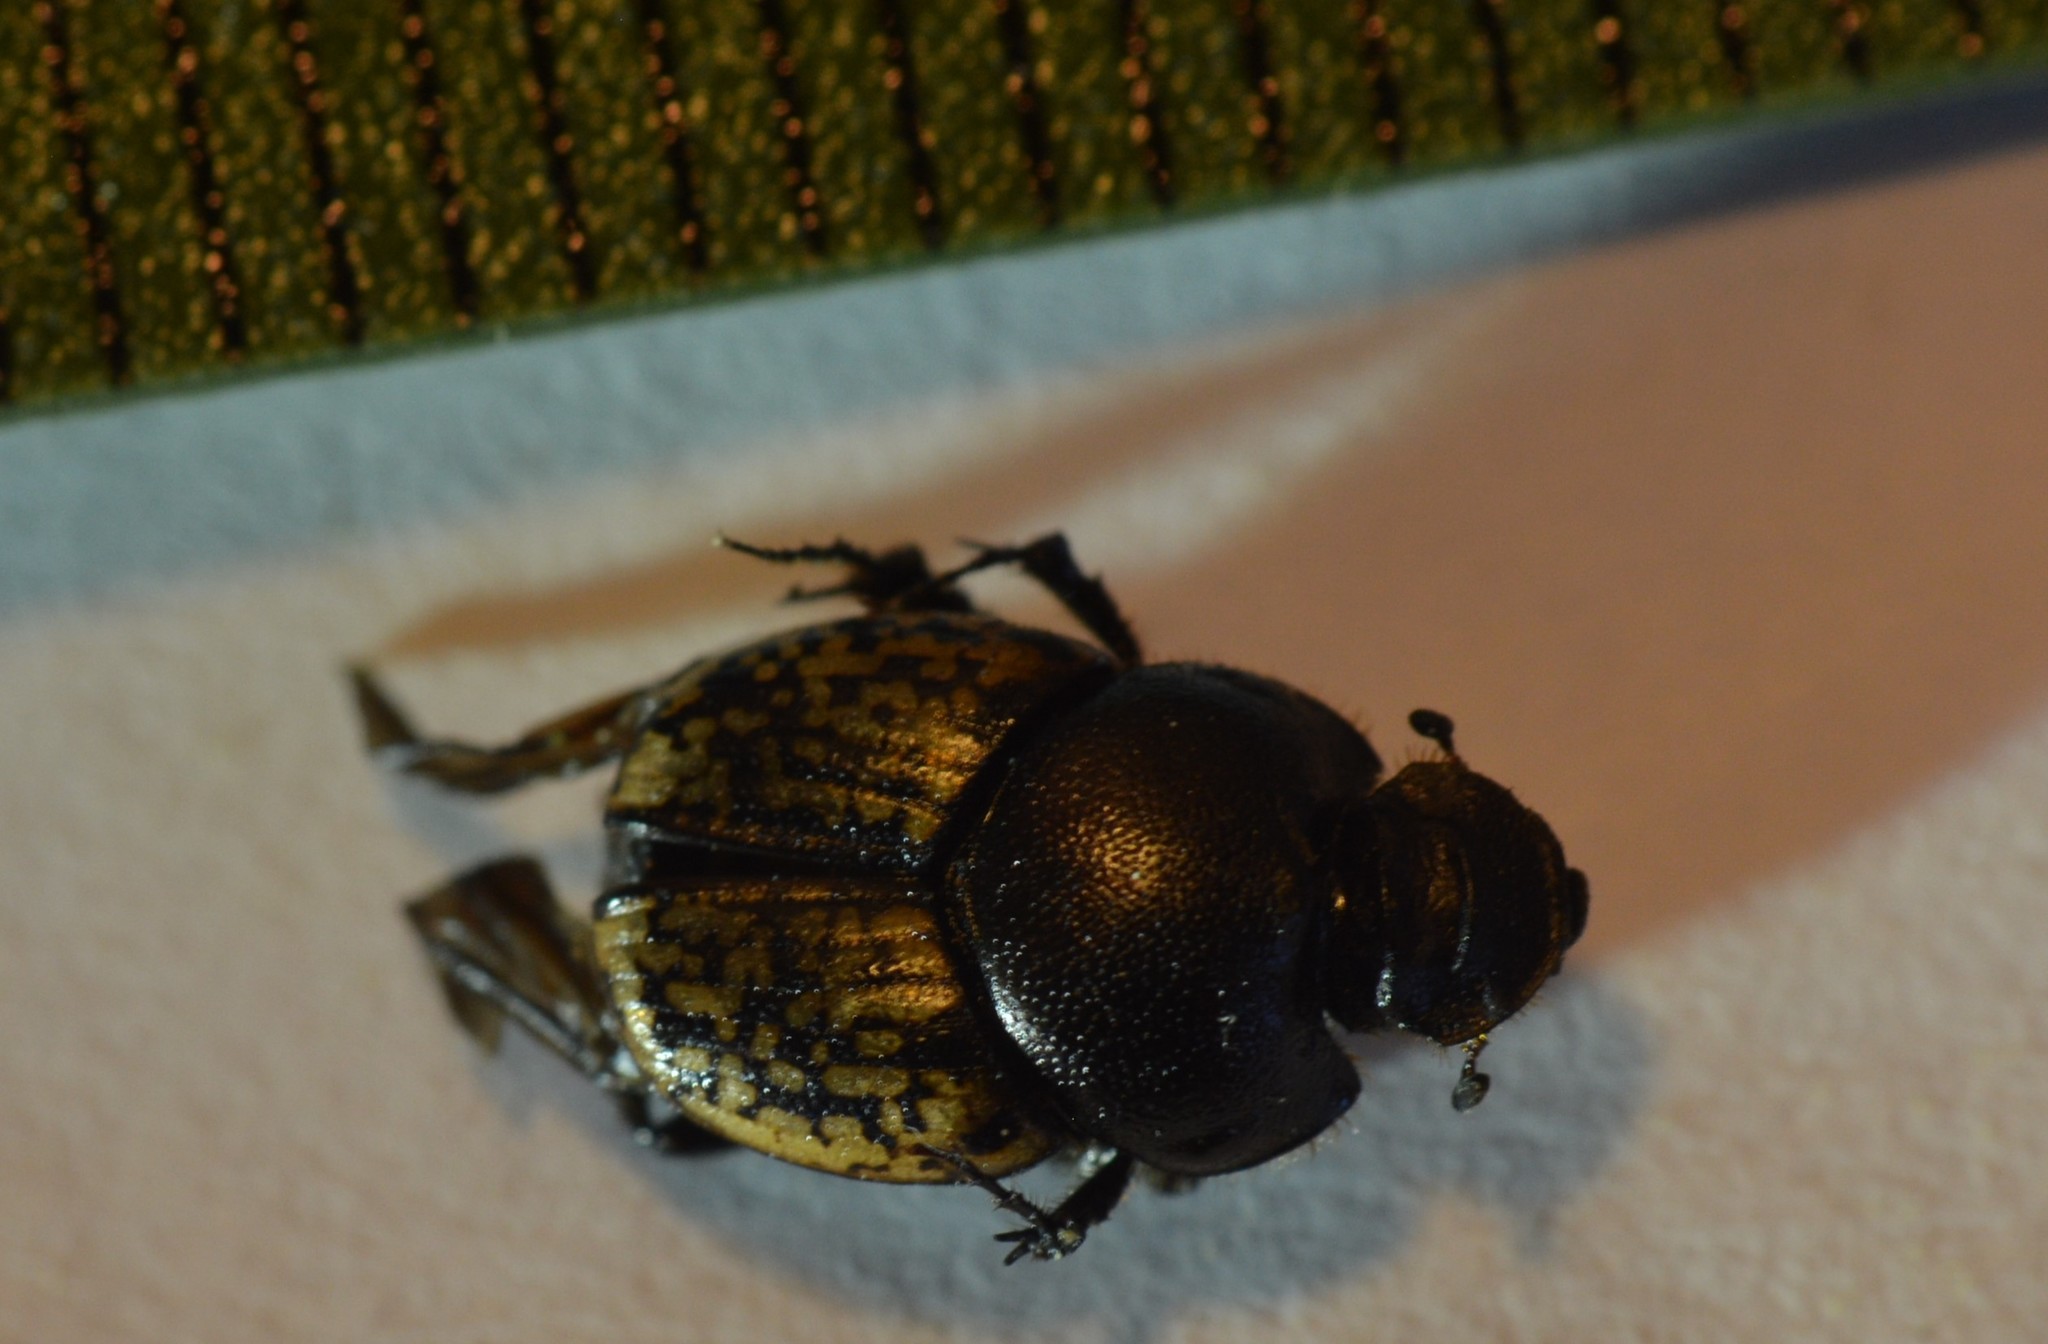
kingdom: Animalia
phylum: Arthropoda
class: Insecta
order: Coleoptera
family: Scarabaeidae
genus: Onthophagus
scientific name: Onthophagus nuchicornis
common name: Mottled dung beetle
